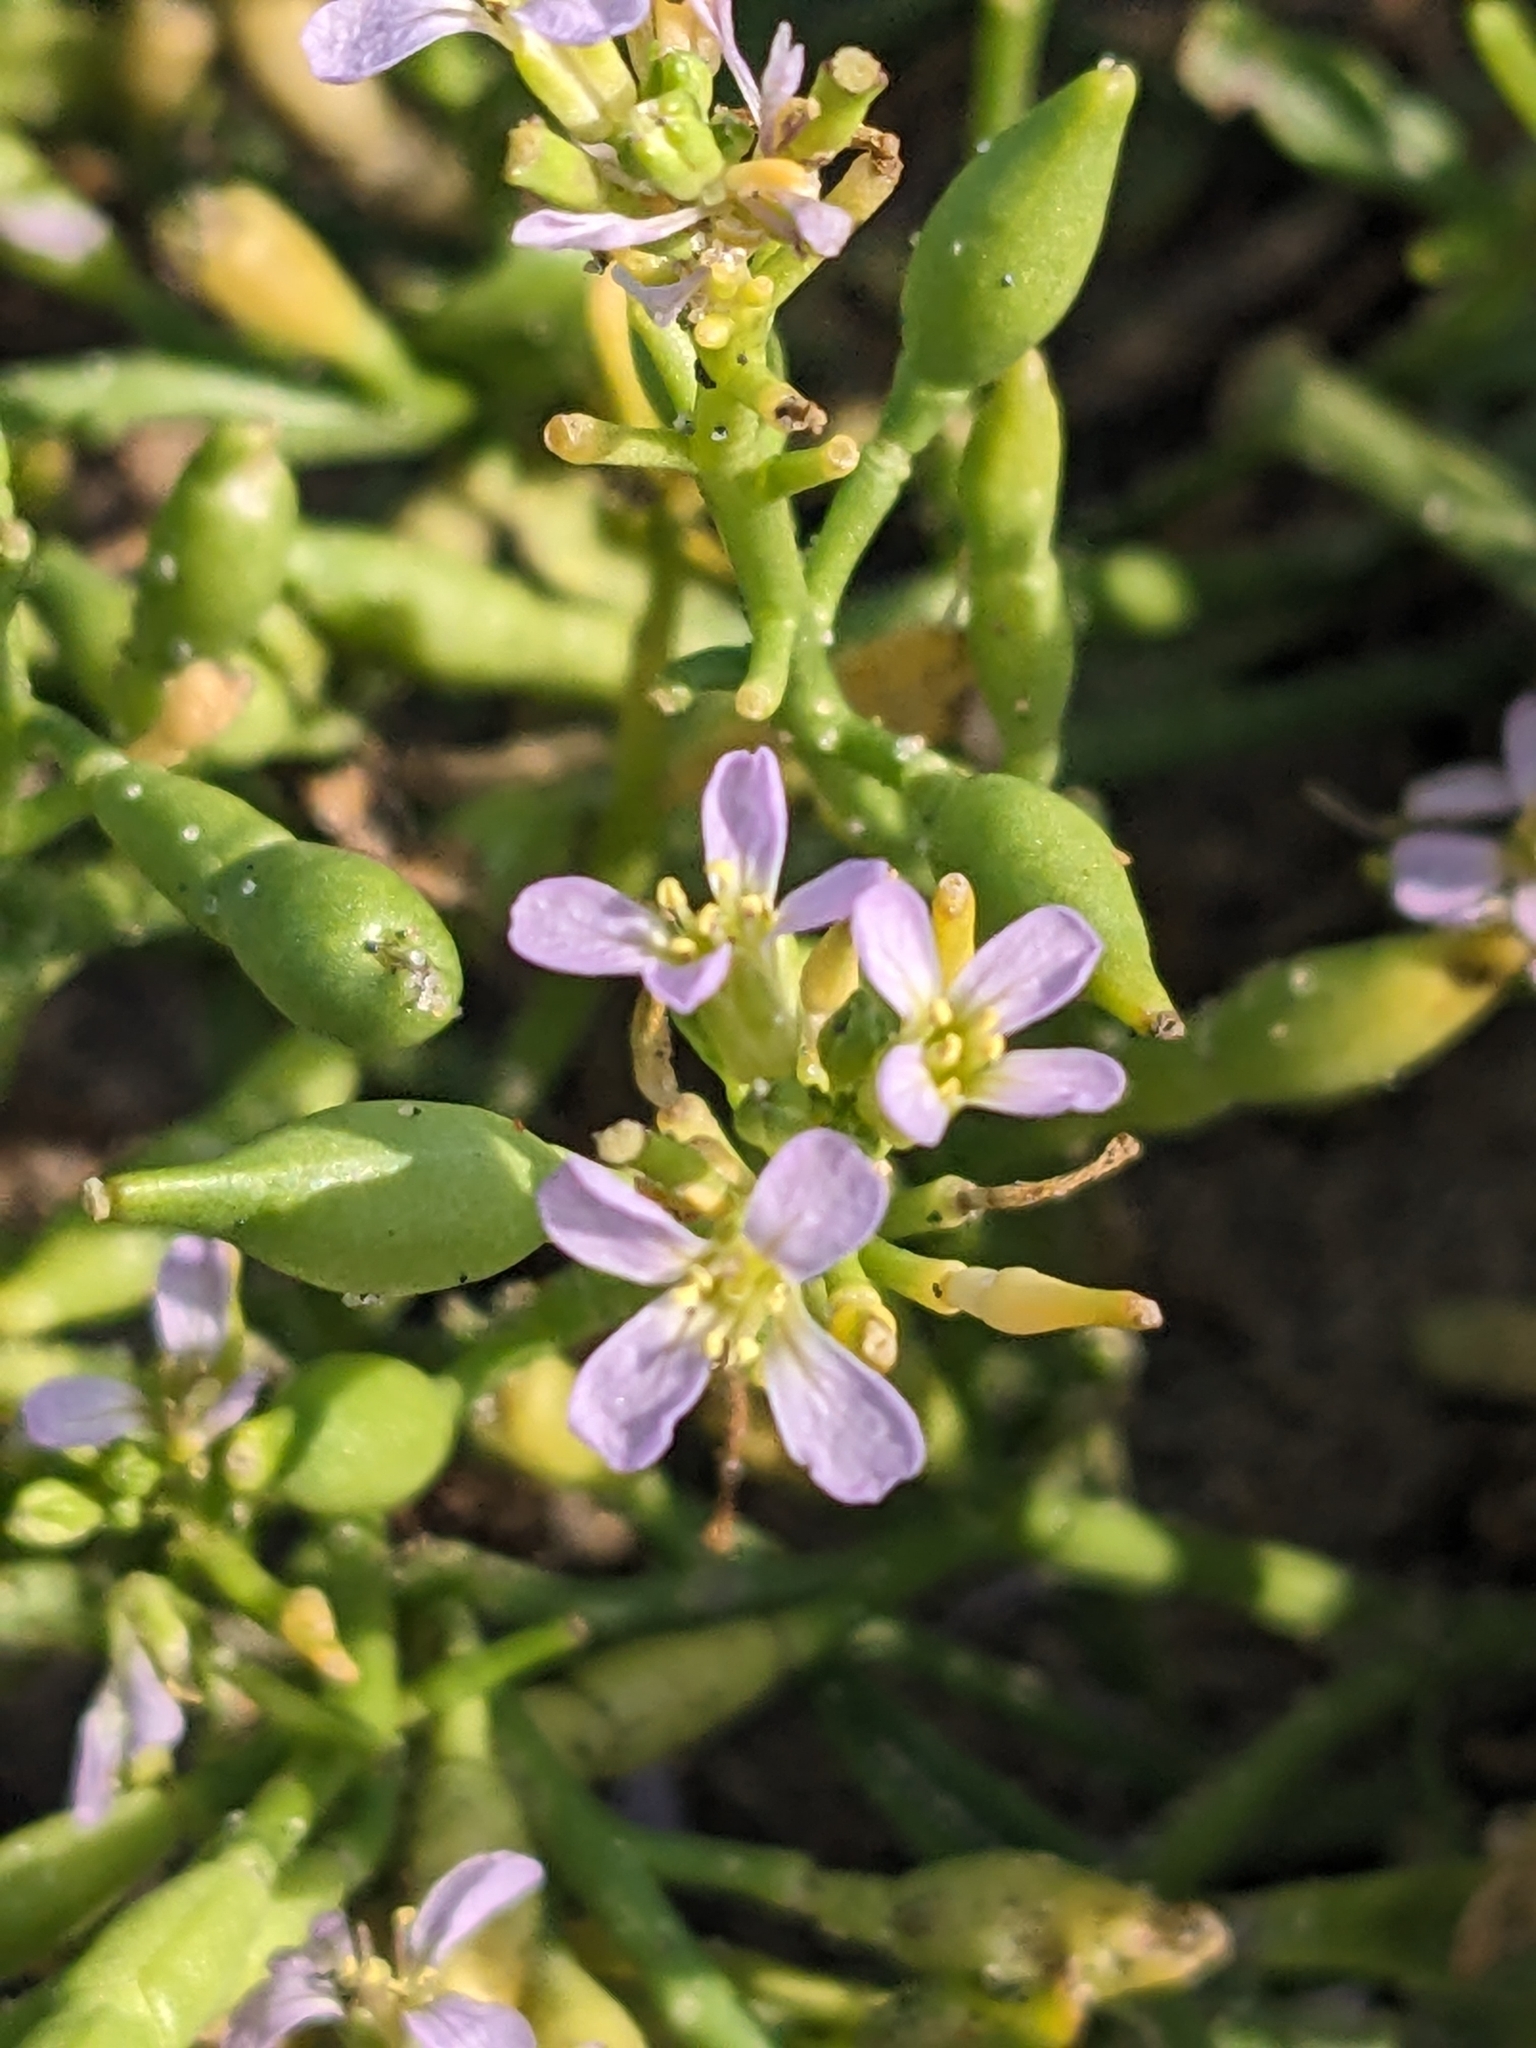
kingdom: Plantae
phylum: Tracheophyta
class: Magnoliopsida
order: Brassicales
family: Brassicaceae
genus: Cakile
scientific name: Cakile edentula
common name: American sea rocket
